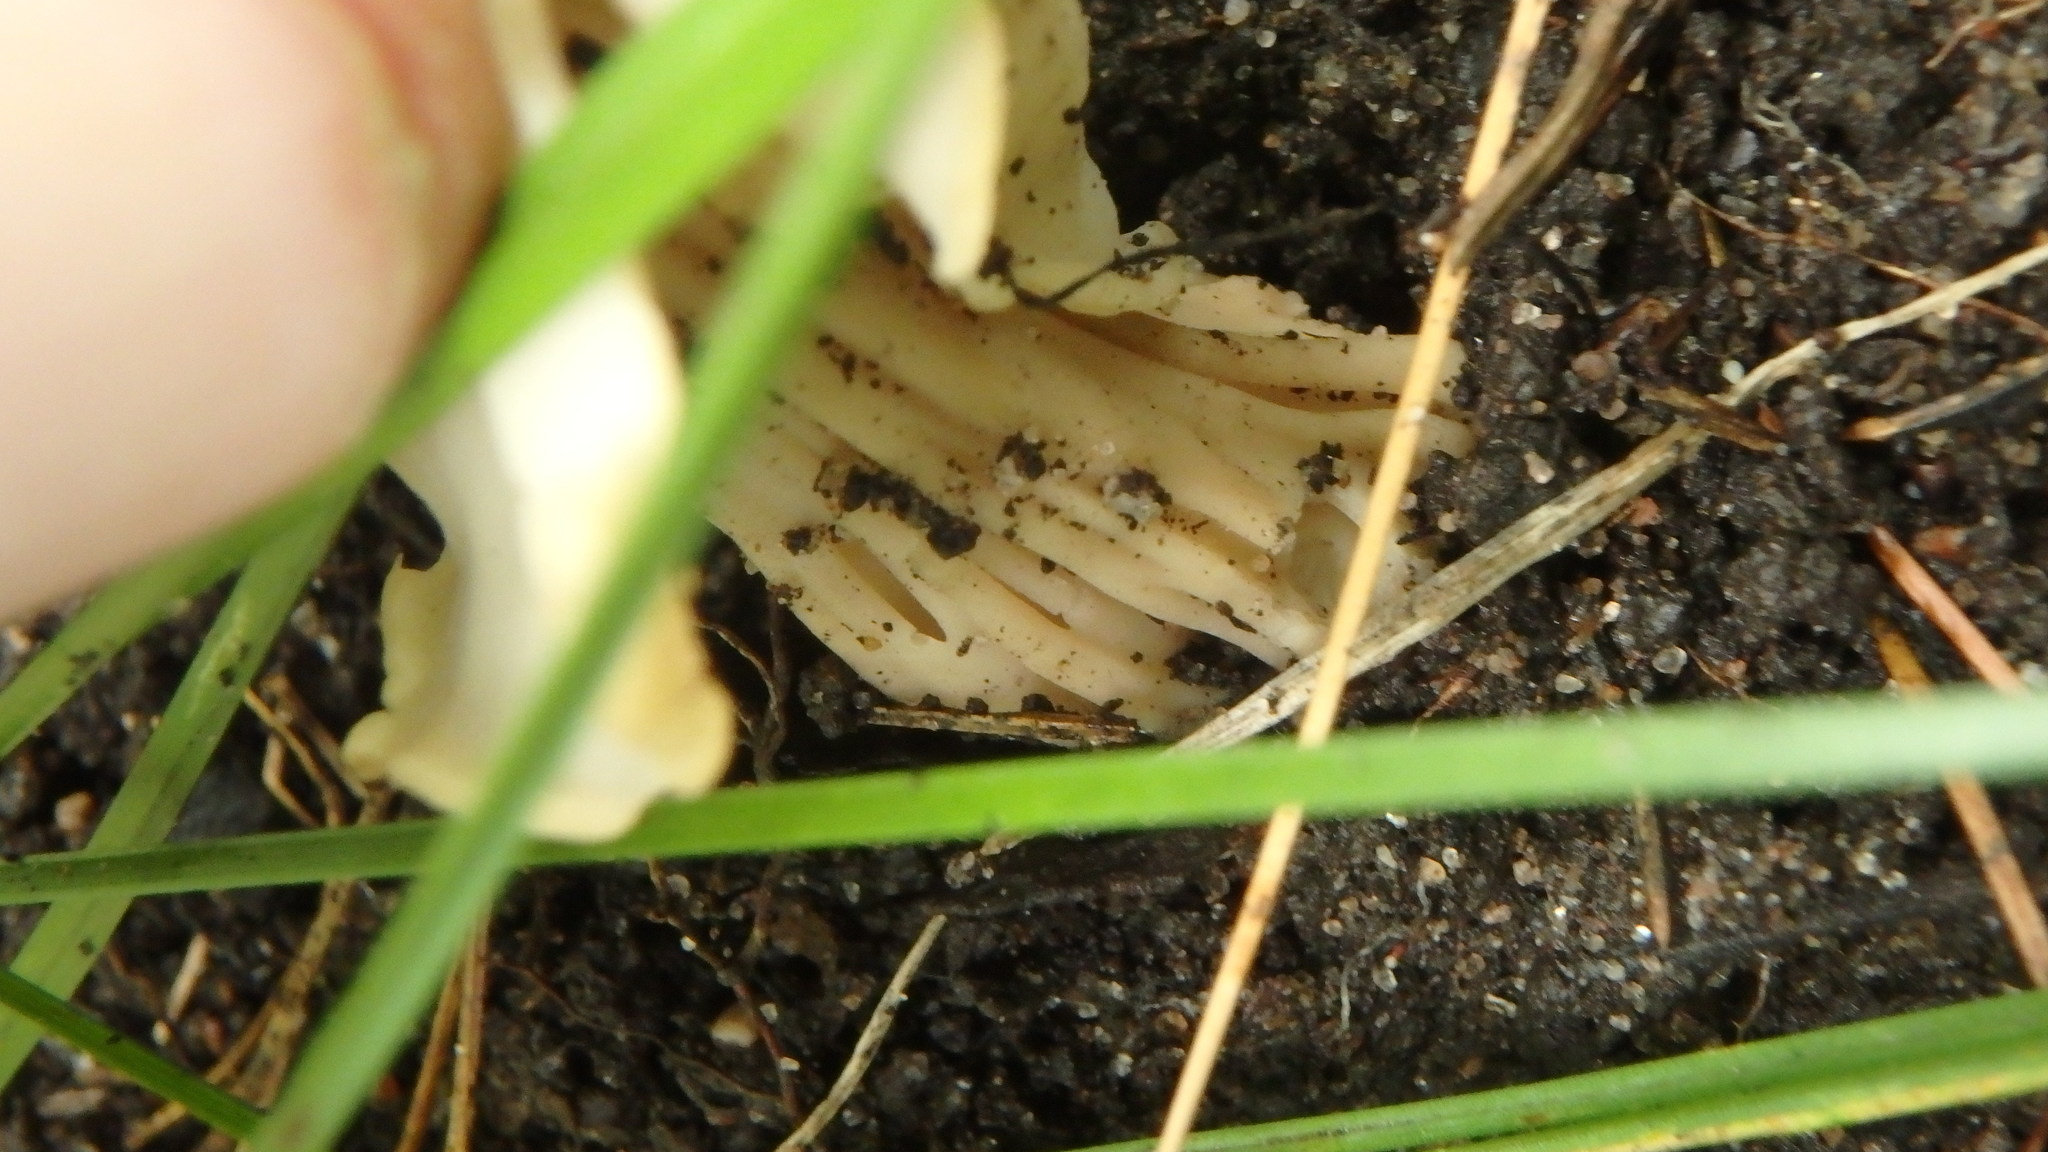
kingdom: Fungi
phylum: Ascomycota
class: Pezizomycetes
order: Pezizales
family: Helvellaceae
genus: Helvella
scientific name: Helvella crispa
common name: White saddle
